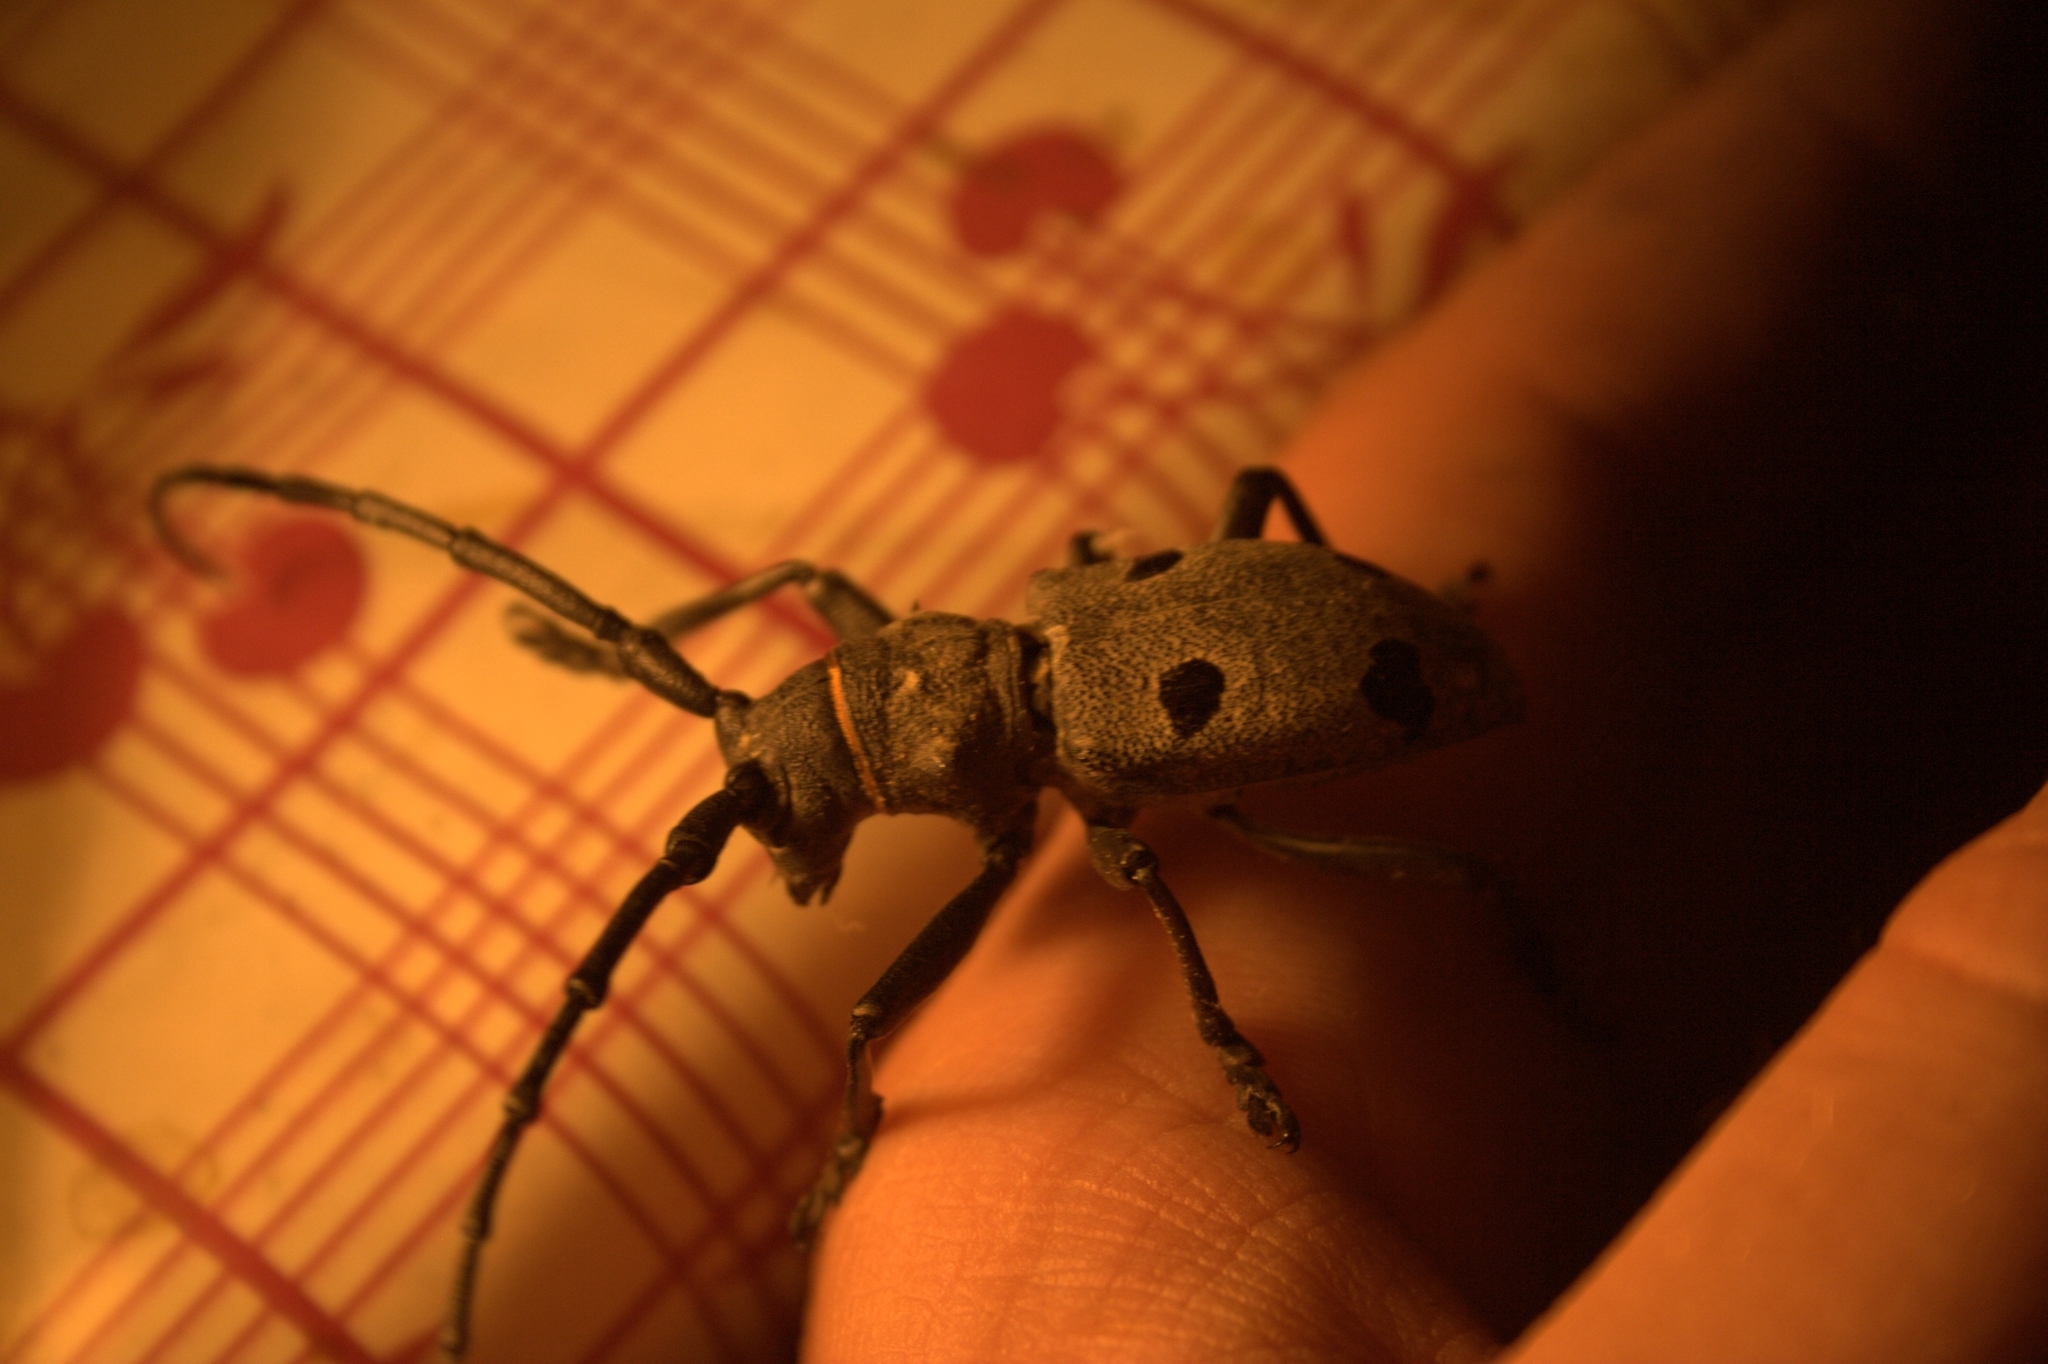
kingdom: Animalia
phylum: Arthropoda
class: Insecta
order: Coleoptera
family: Cerambycidae
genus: Morimus
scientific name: Morimus funereus
